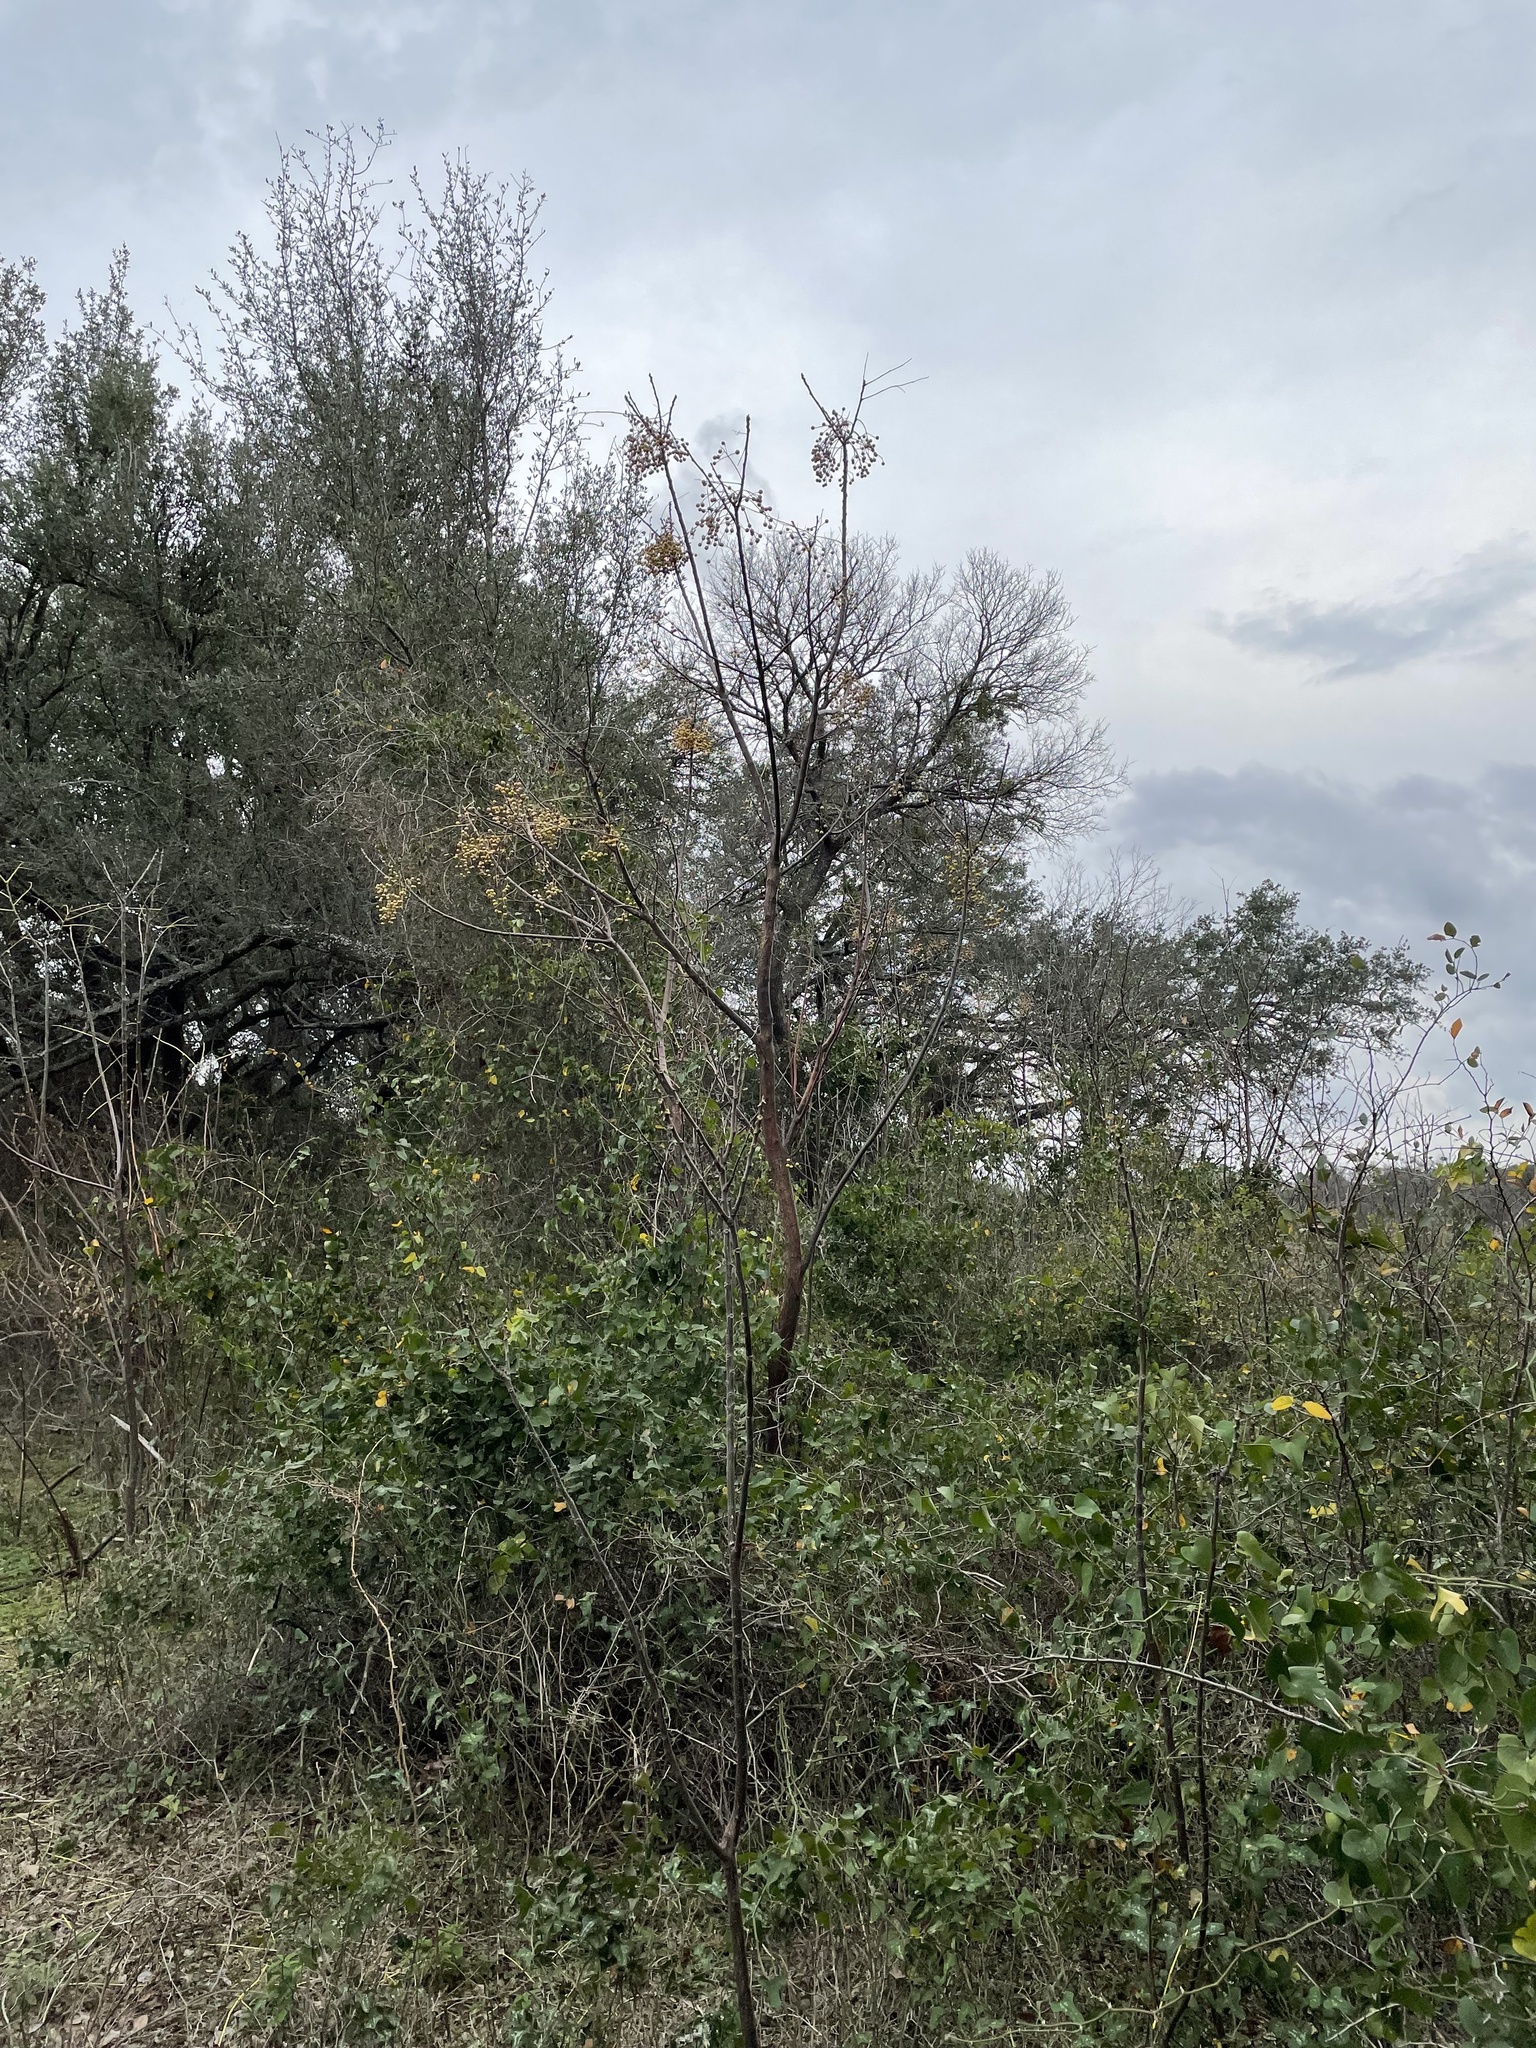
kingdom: Plantae
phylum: Tracheophyta
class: Magnoliopsida
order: Sapindales
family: Meliaceae
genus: Melia
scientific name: Melia azedarach
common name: Chinaberrytree
